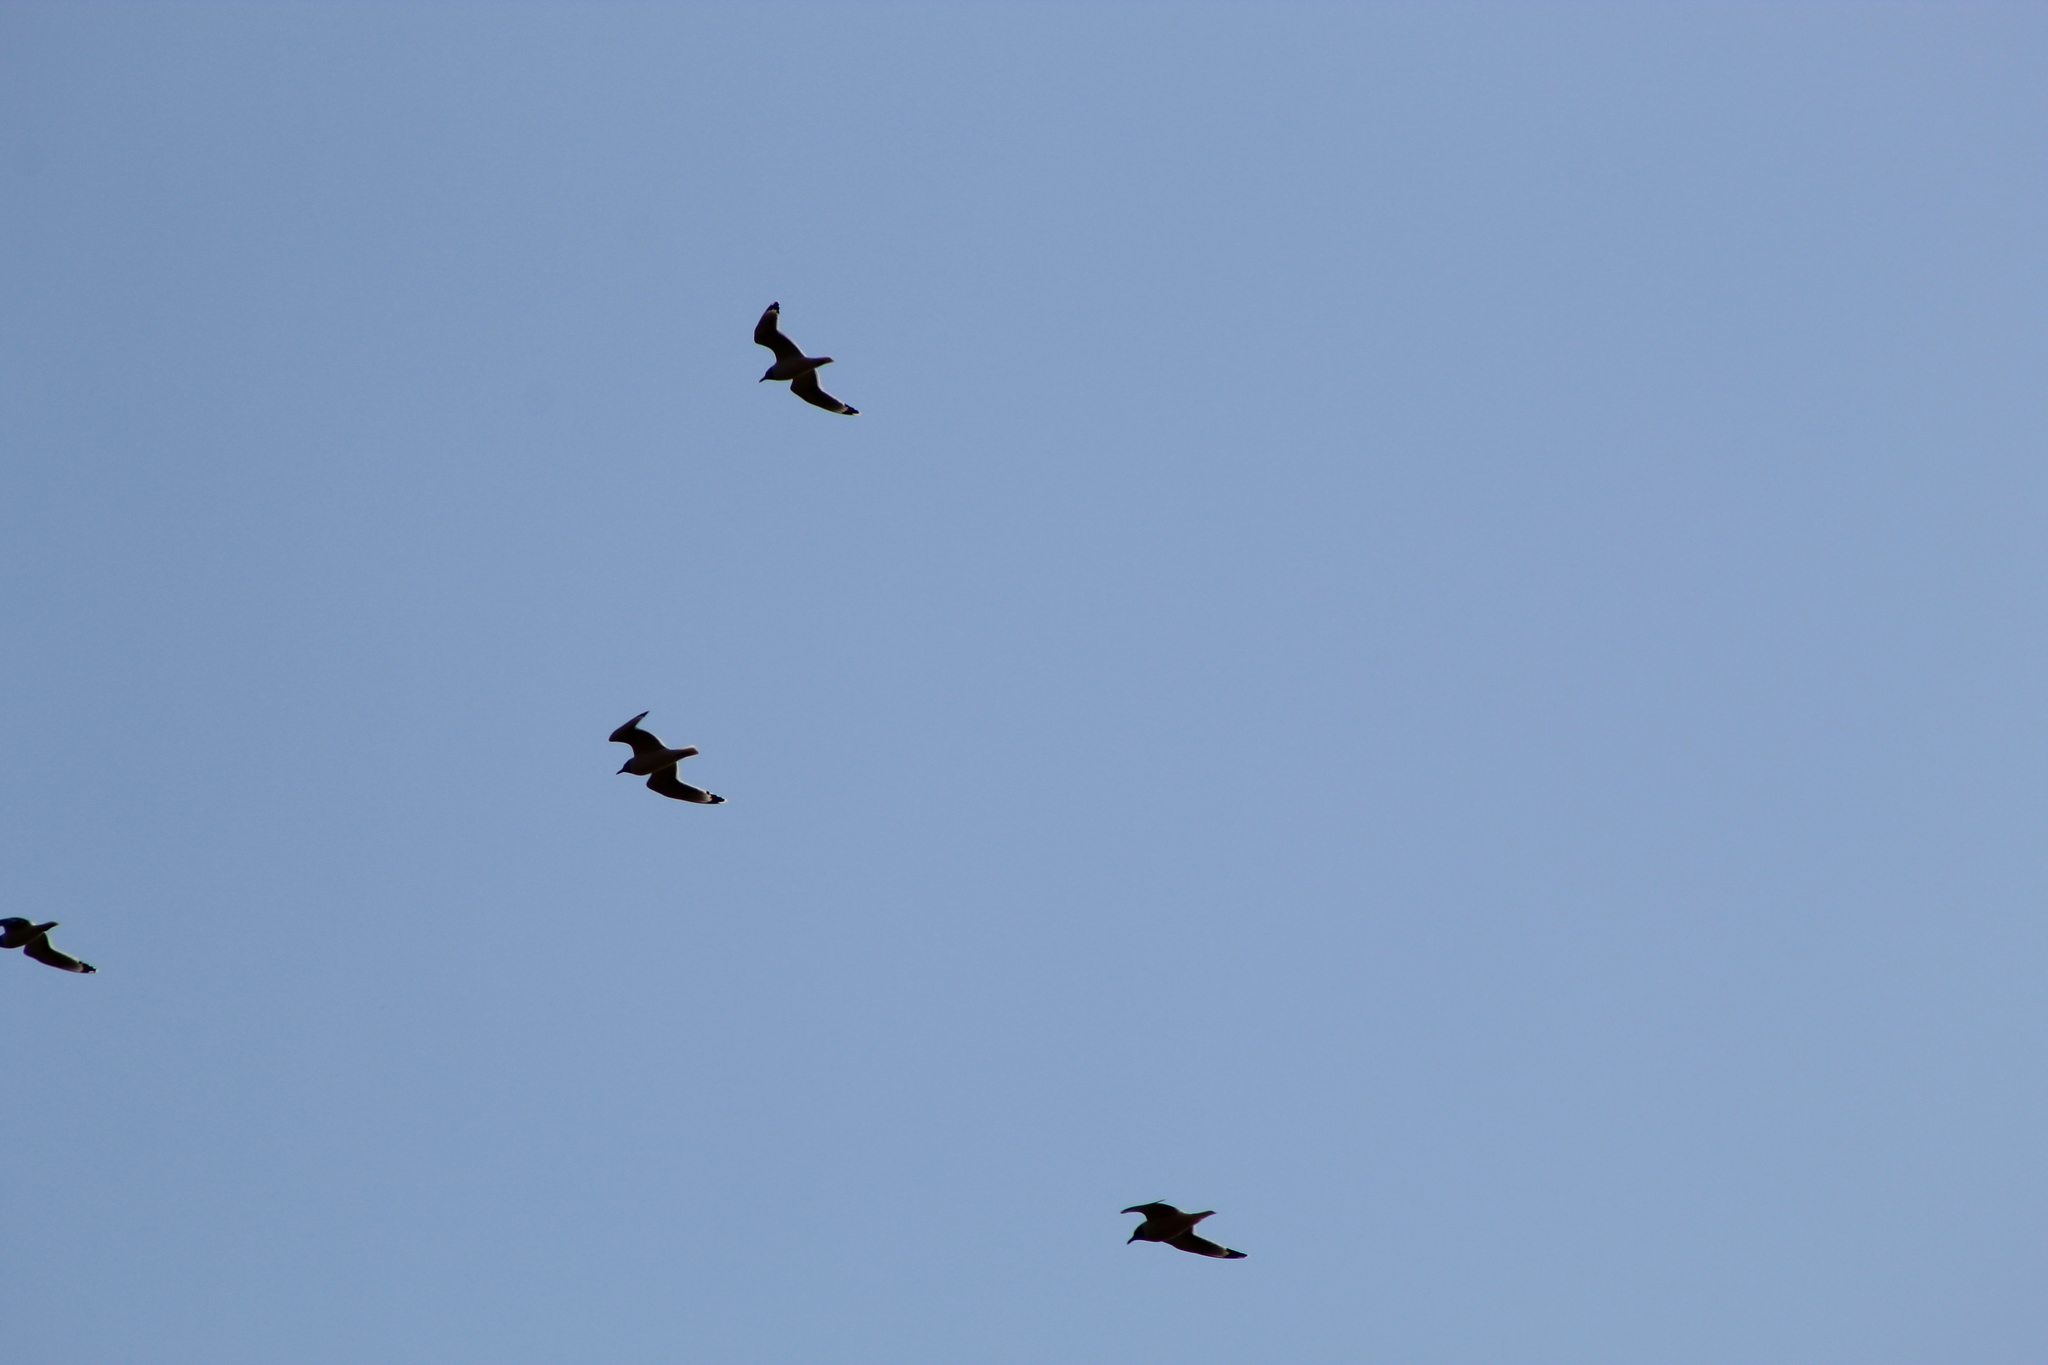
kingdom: Animalia
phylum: Chordata
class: Aves
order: Charadriiformes
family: Laridae
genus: Leucophaeus
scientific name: Leucophaeus pipixcan
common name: Franklin's gull
